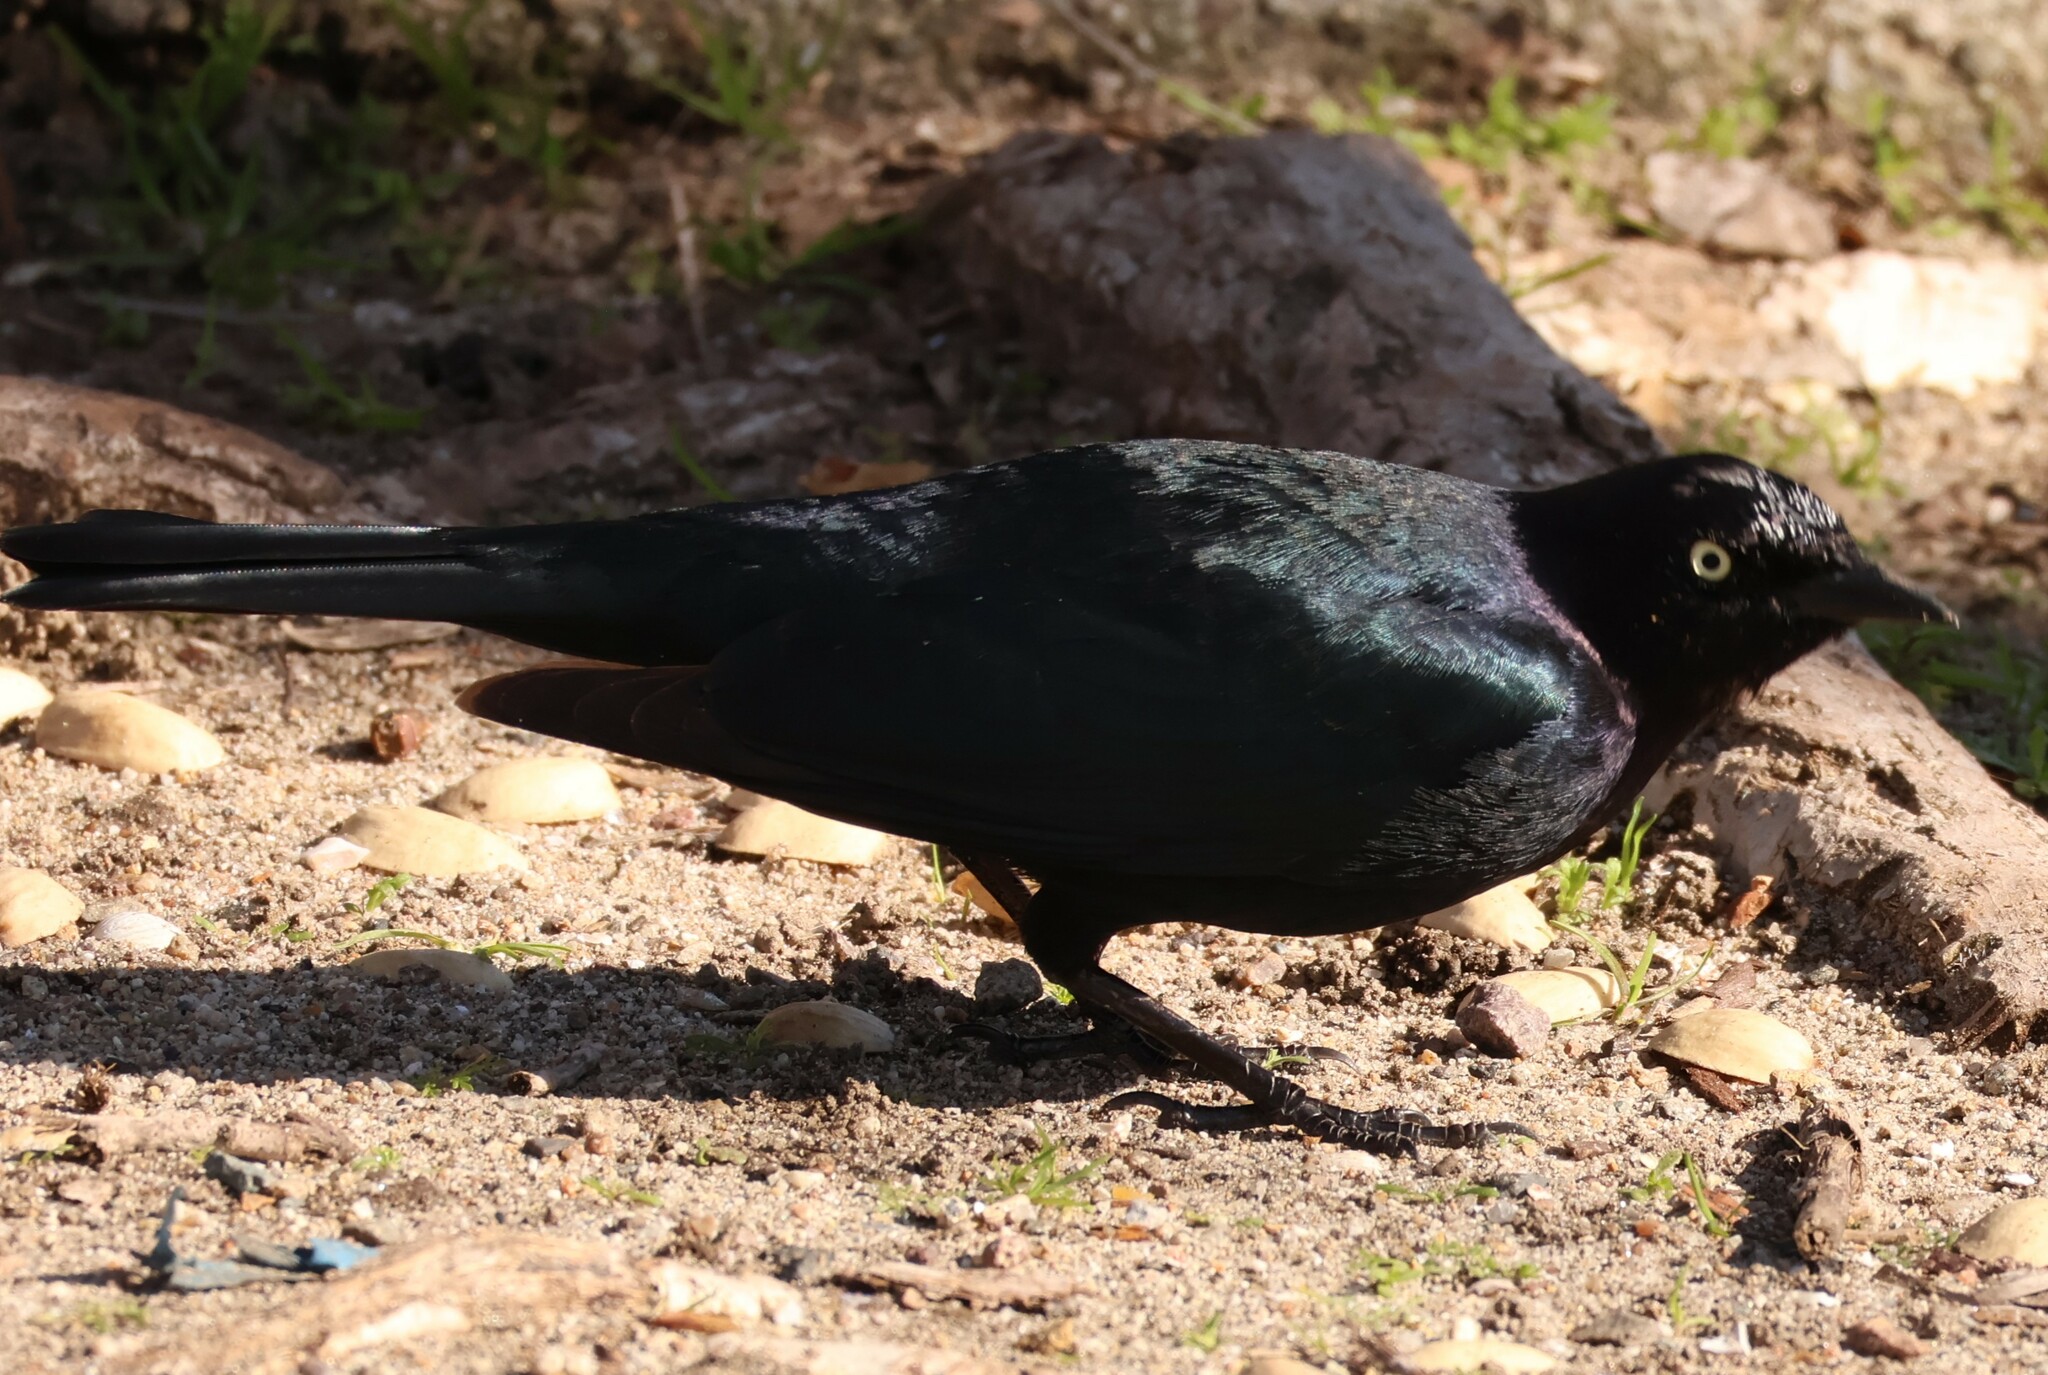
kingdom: Animalia
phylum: Chordata
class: Aves
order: Passeriformes
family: Icteridae
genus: Euphagus
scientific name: Euphagus cyanocephalus
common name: Brewer's blackbird
